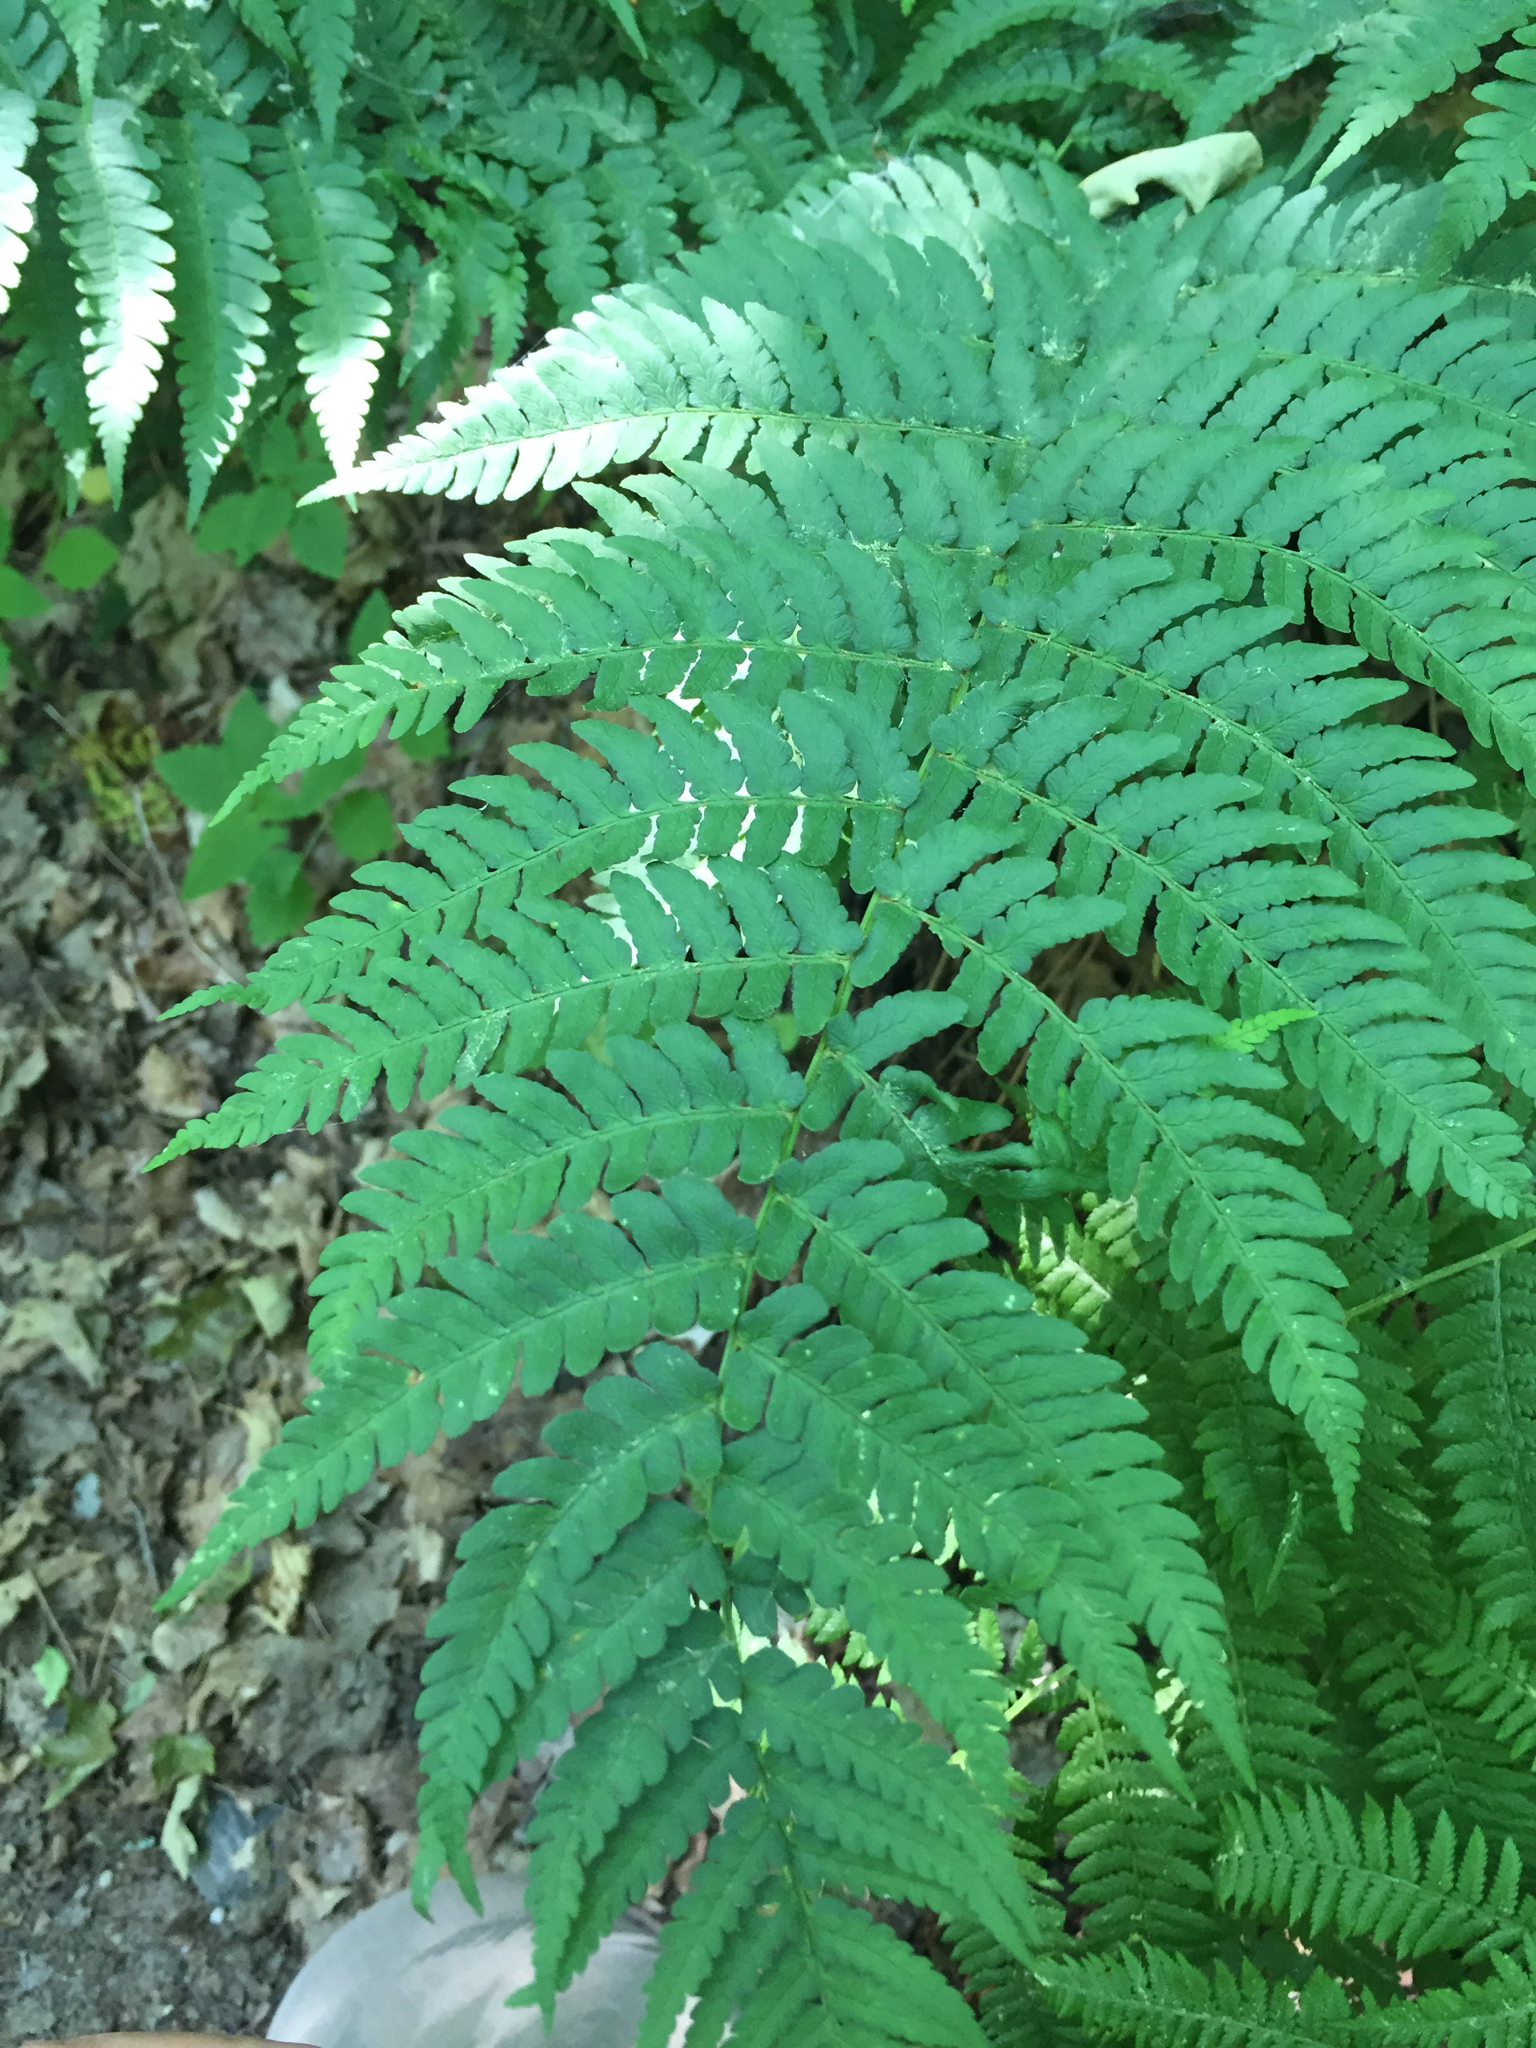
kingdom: Plantae
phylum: Tracheophyta
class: Polypodiopsida
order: Polypodiales
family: Dryopteridaceae
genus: Dryopteris
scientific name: Dryopteris marginalis
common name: Marginal wood fern
